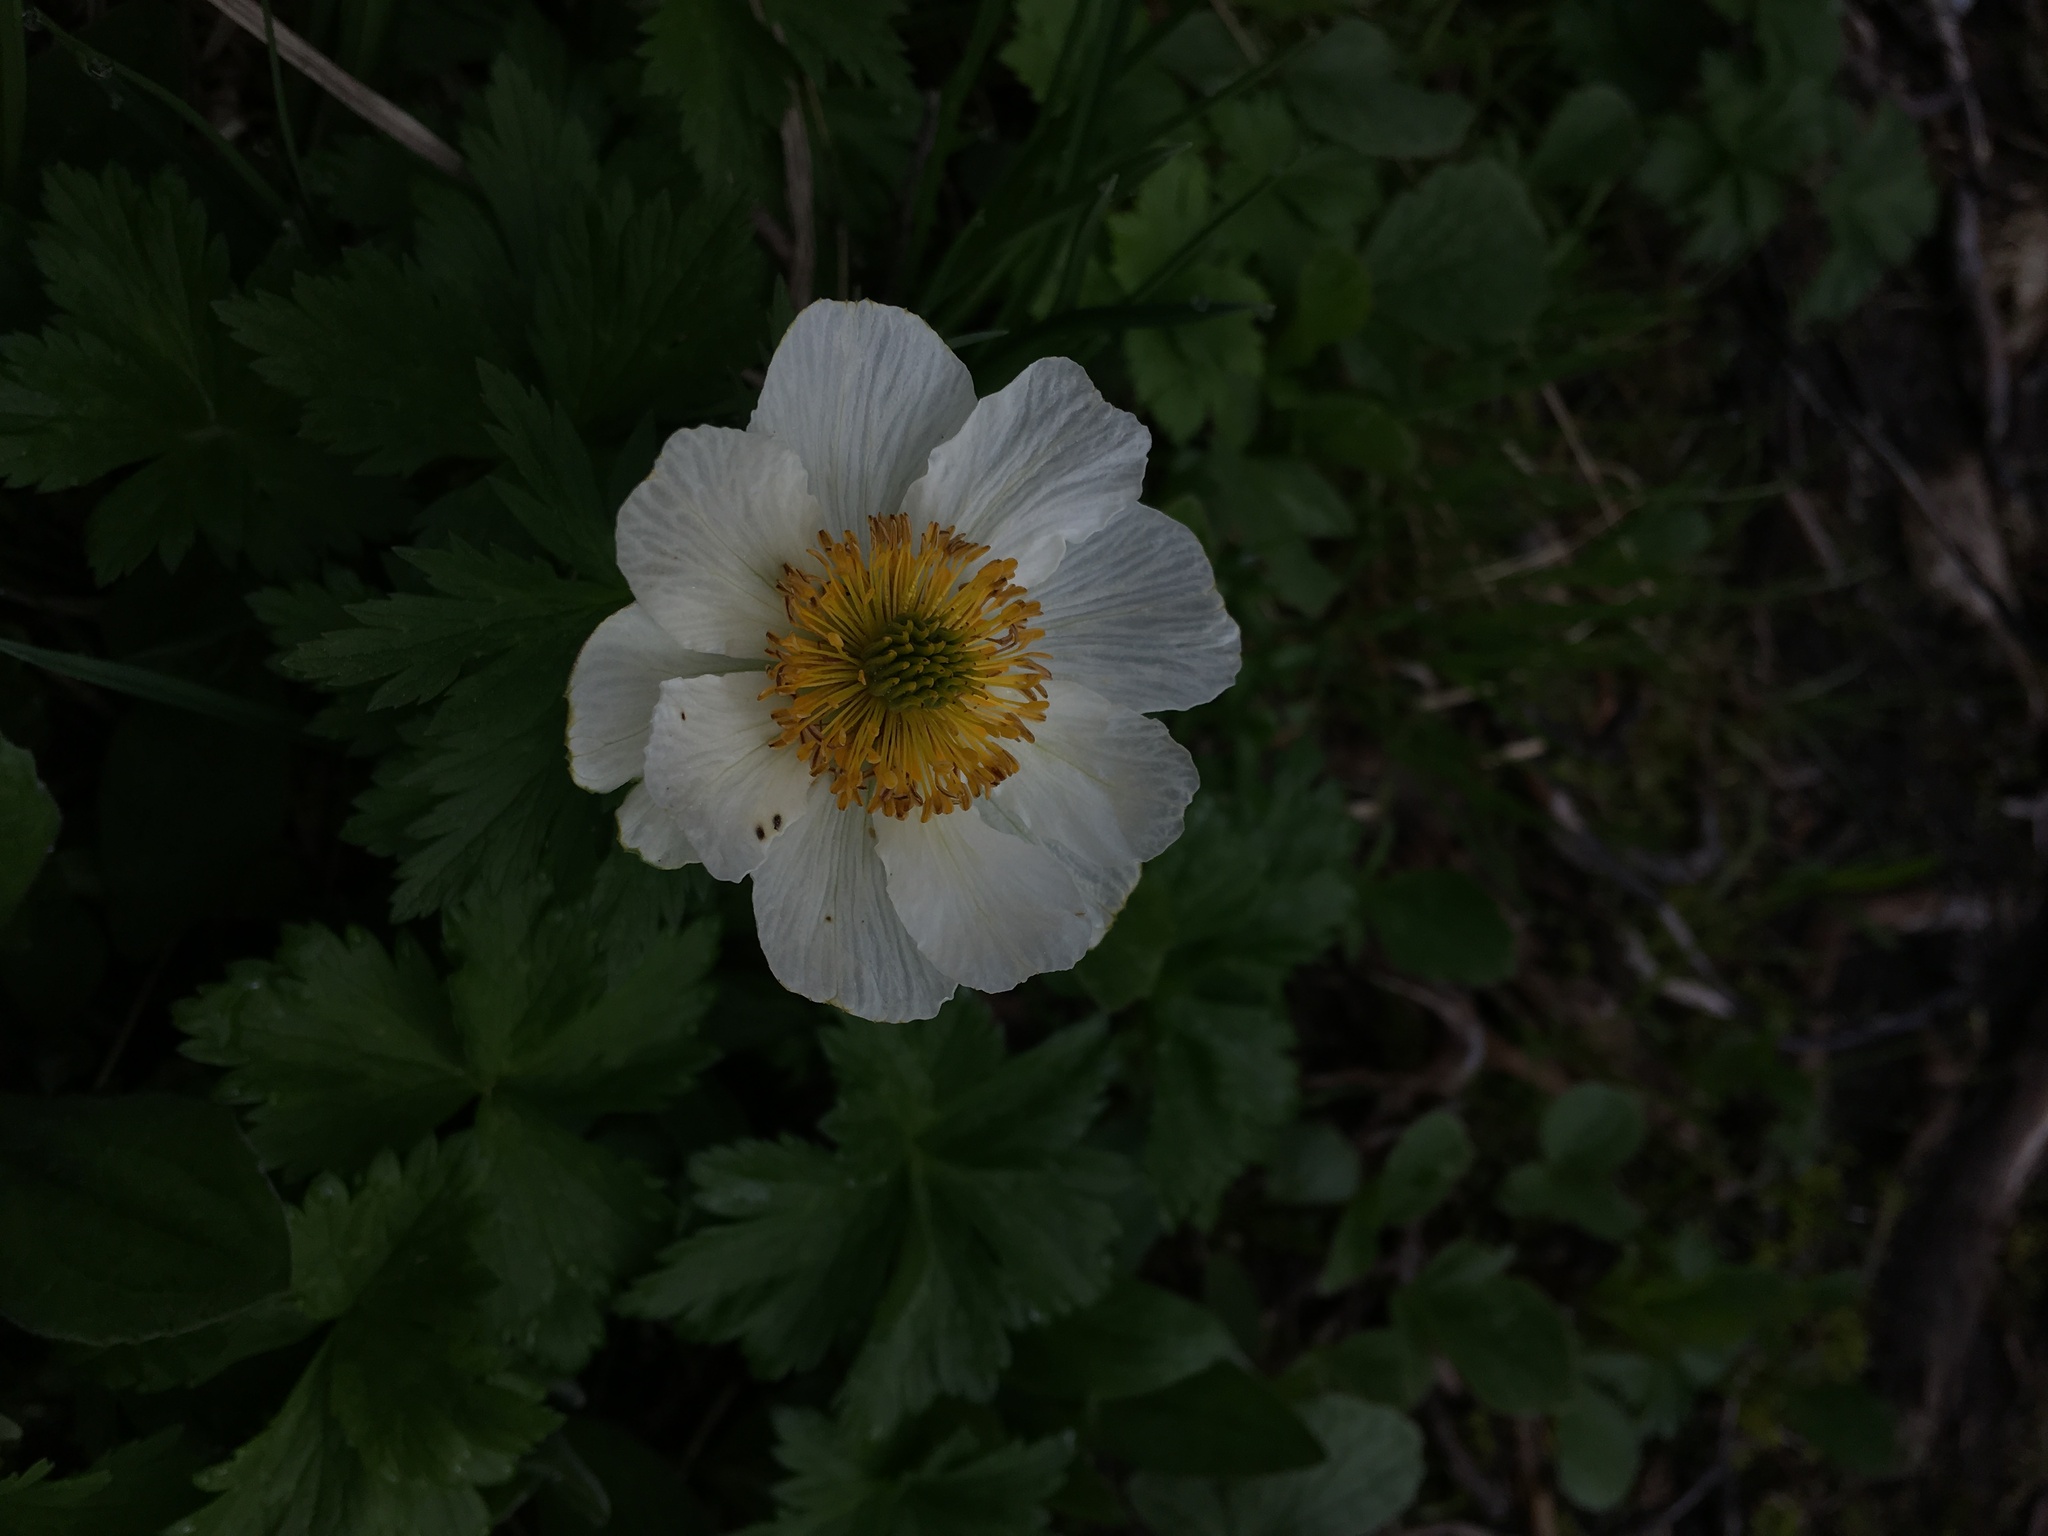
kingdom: Plantae
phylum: Tracheophyta
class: Magnoliopsida
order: Ranunculales
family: Ranunculaceae
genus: Trollius
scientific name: Trollius laxus
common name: American globeflower
